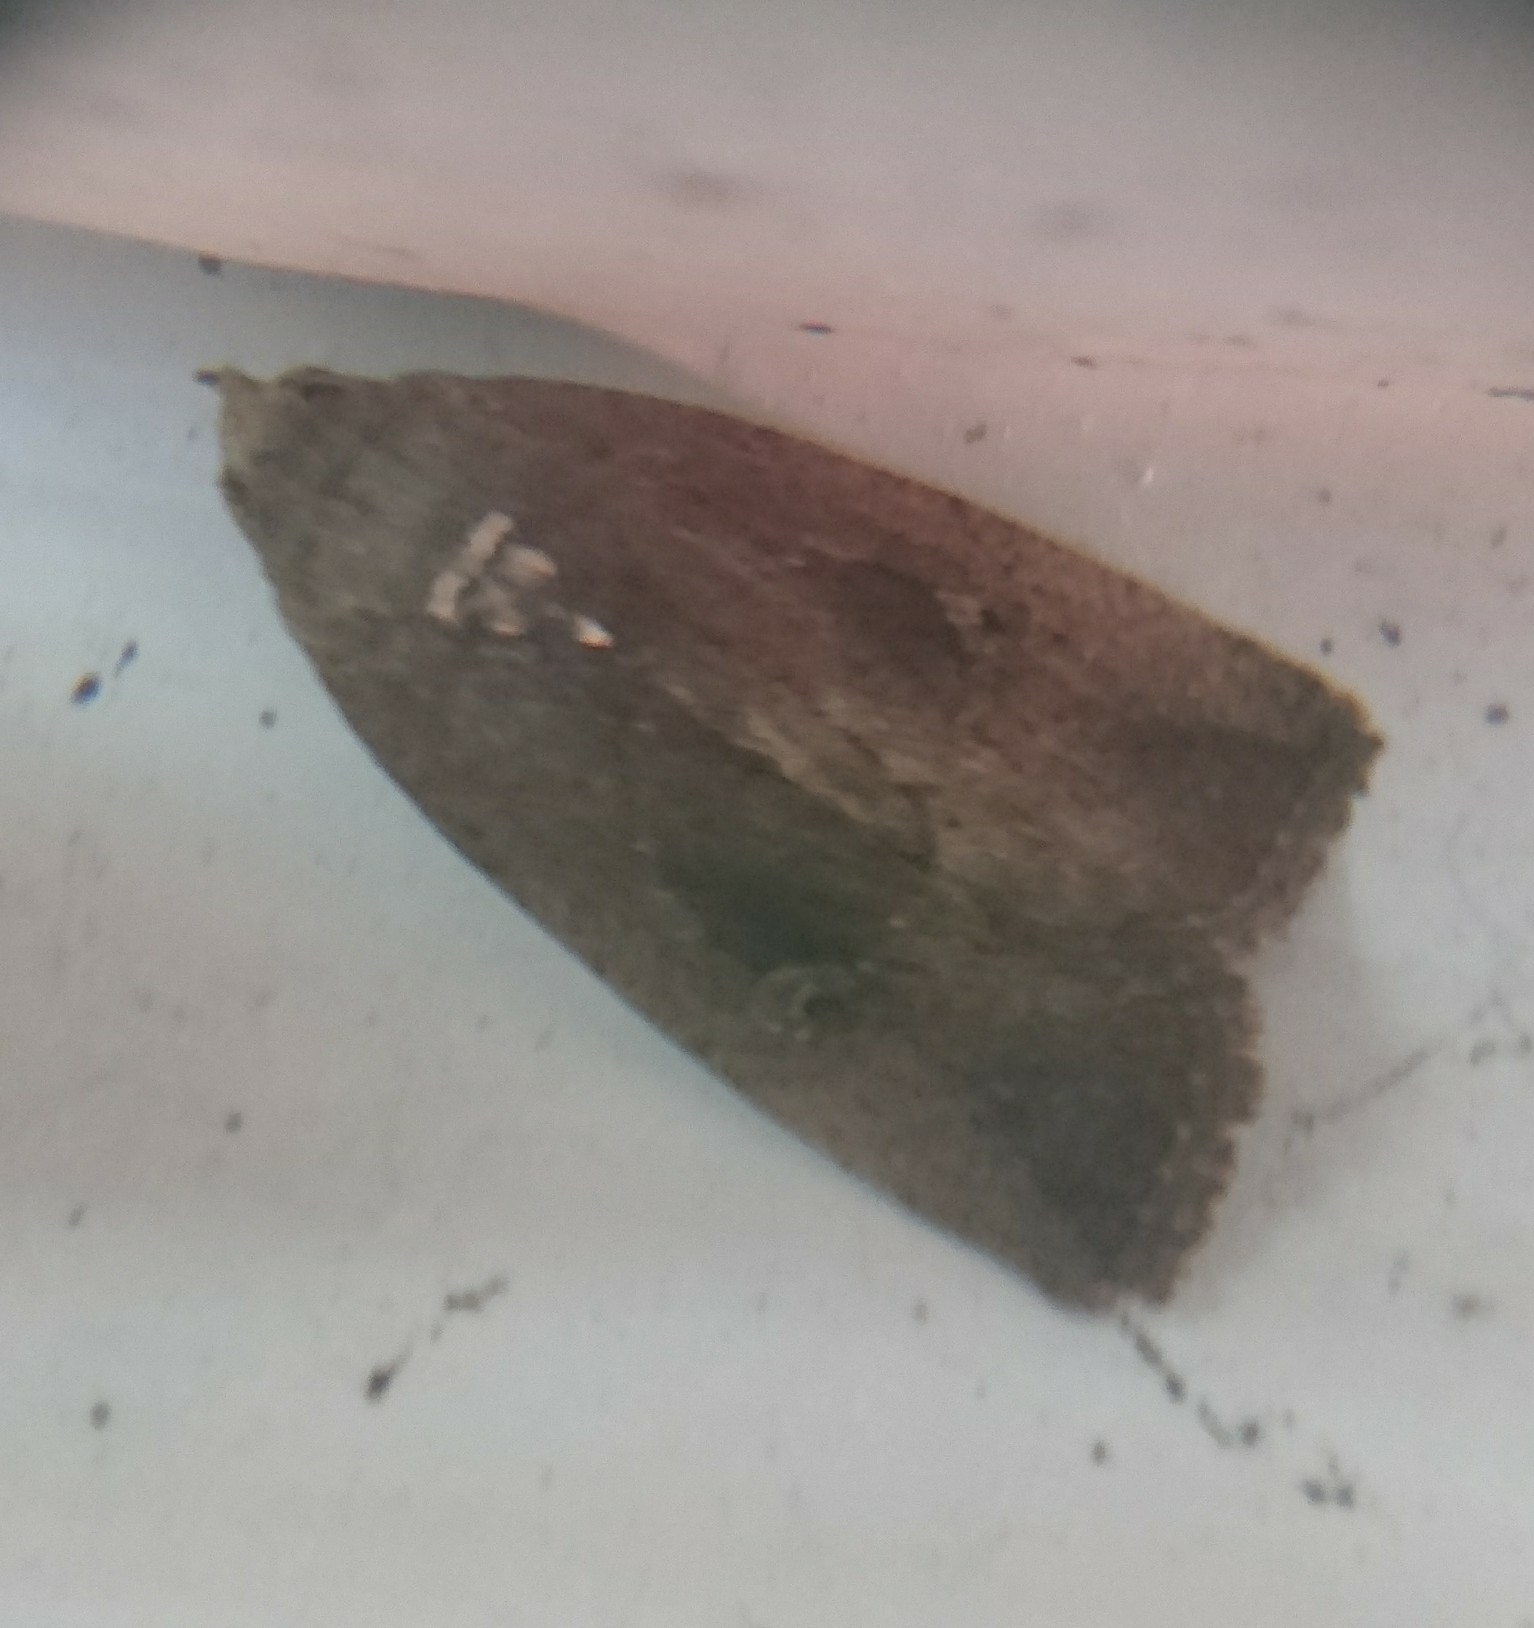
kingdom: Animalia
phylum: Arthropoda
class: Insecta
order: Lepidoptera
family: Noctuidae
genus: Elaphria
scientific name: Elaphria nucicolora
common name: Sugarcane midget moth
